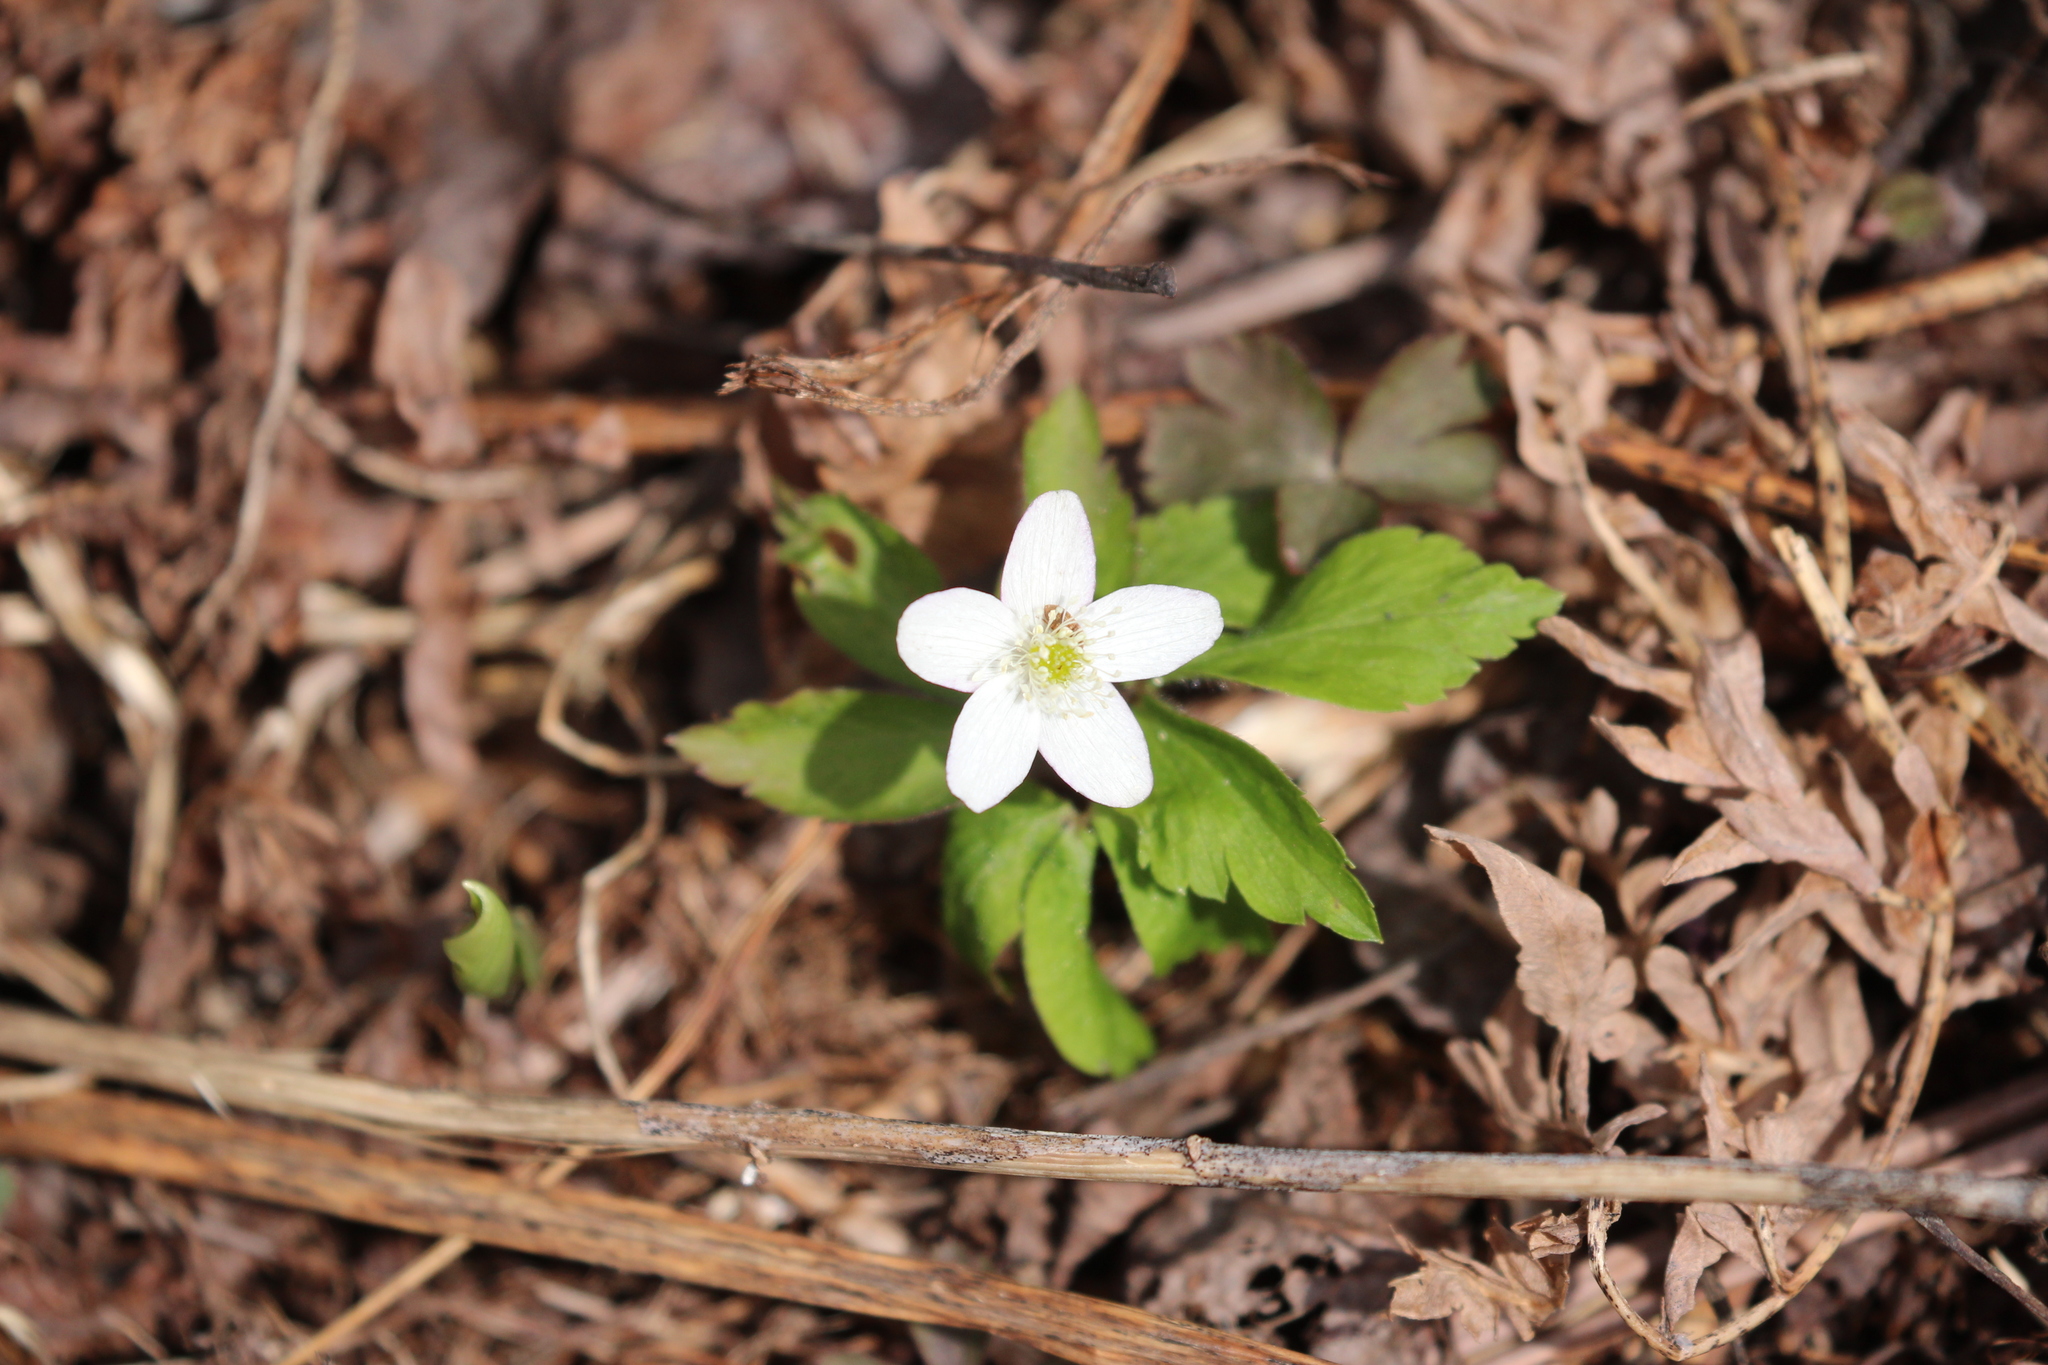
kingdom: Plantae
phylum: Tracheophyta
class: Magnoliopsida
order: Ranunculales
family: Ranunculaceae
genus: Anemone
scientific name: Anemone quinquefolia
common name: Wood anemone
